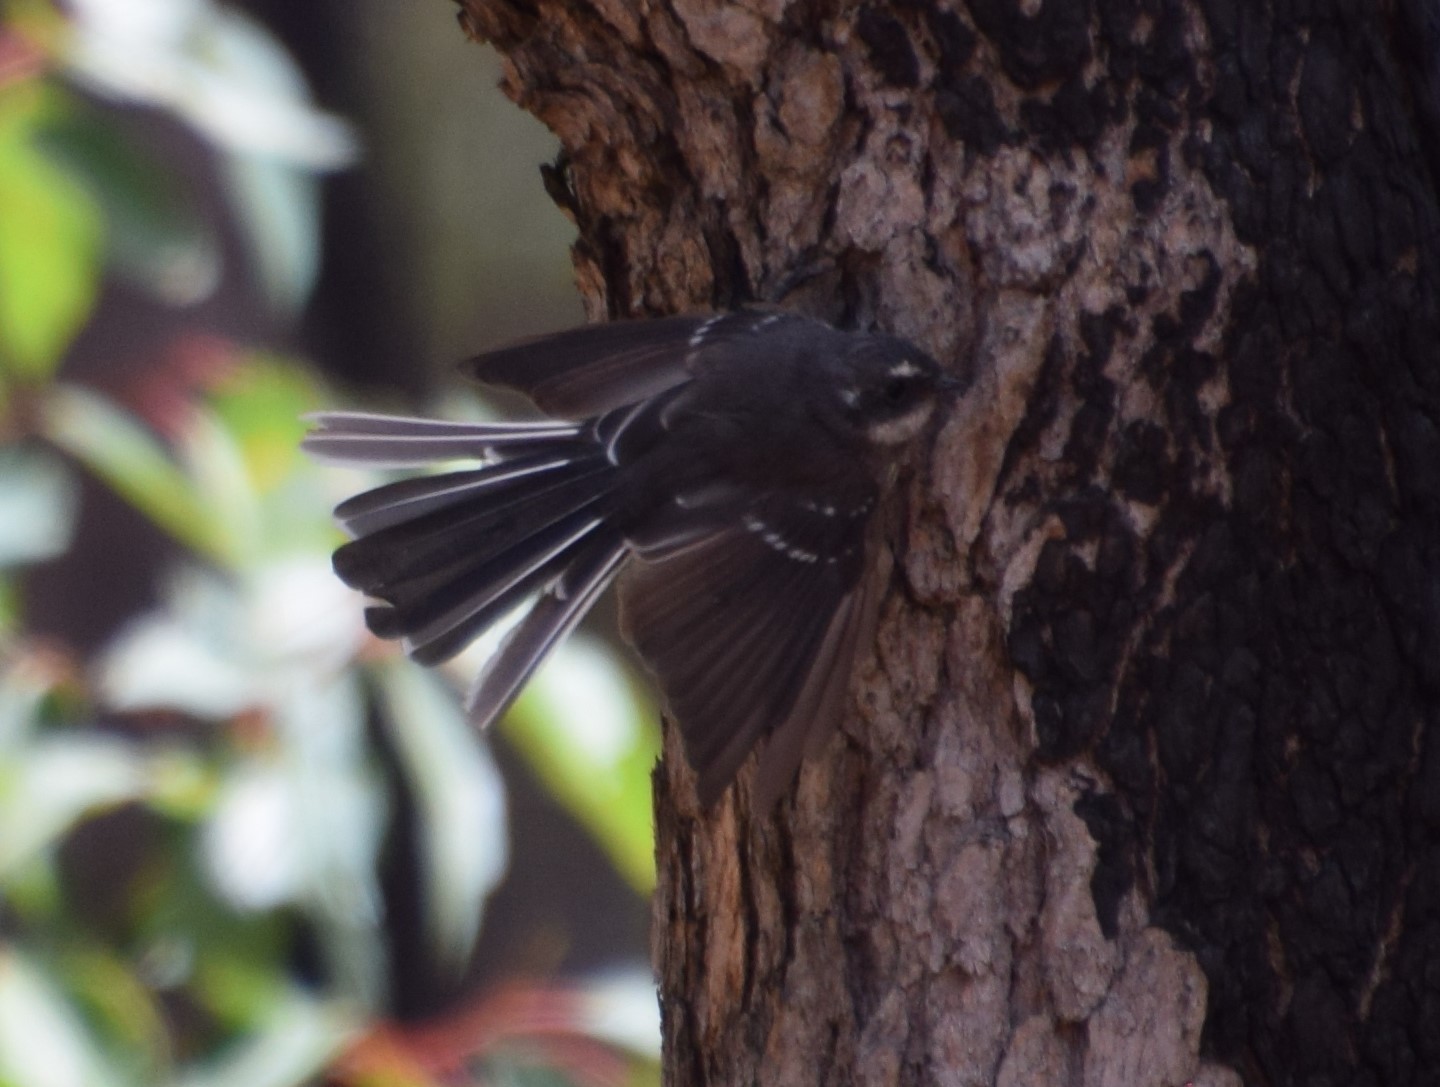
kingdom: Animalia
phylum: Chordata
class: Aves
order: Passeriformes
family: Rhipiduridae
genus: Rhipidura
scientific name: Rhipidura albiscapa
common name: Grey fantail
